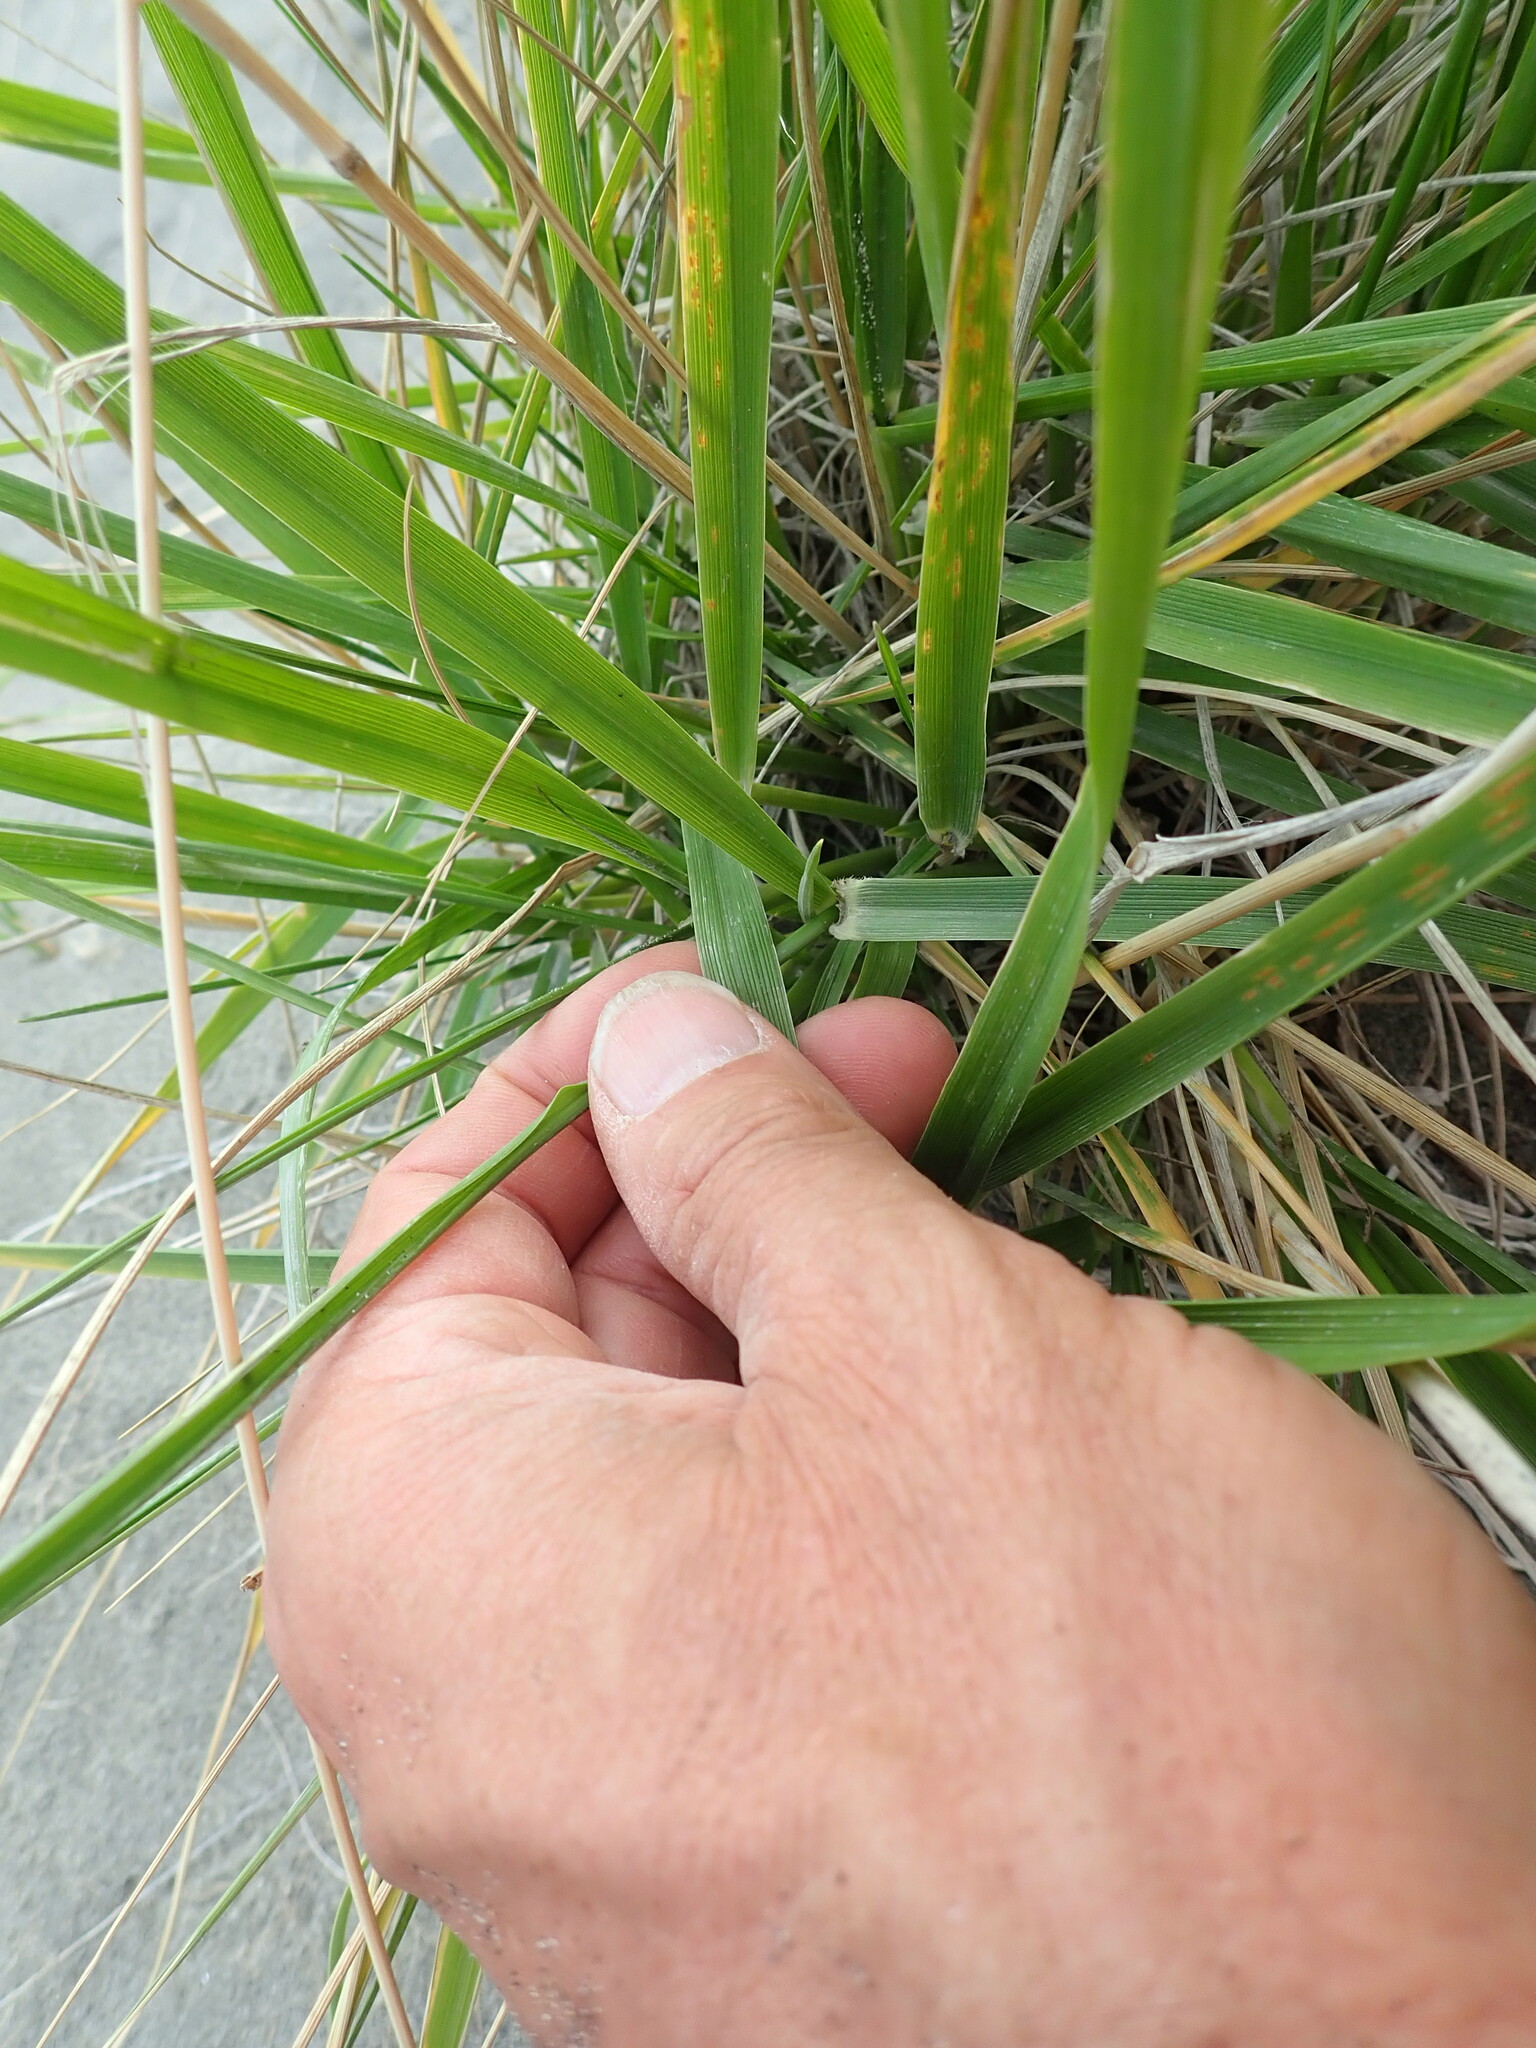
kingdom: Plantae
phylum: Tracheophyta
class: Liliopsida
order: Poales
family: Poaceae
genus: Lolium
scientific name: Lolium arundinaceum
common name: Reed fescue
